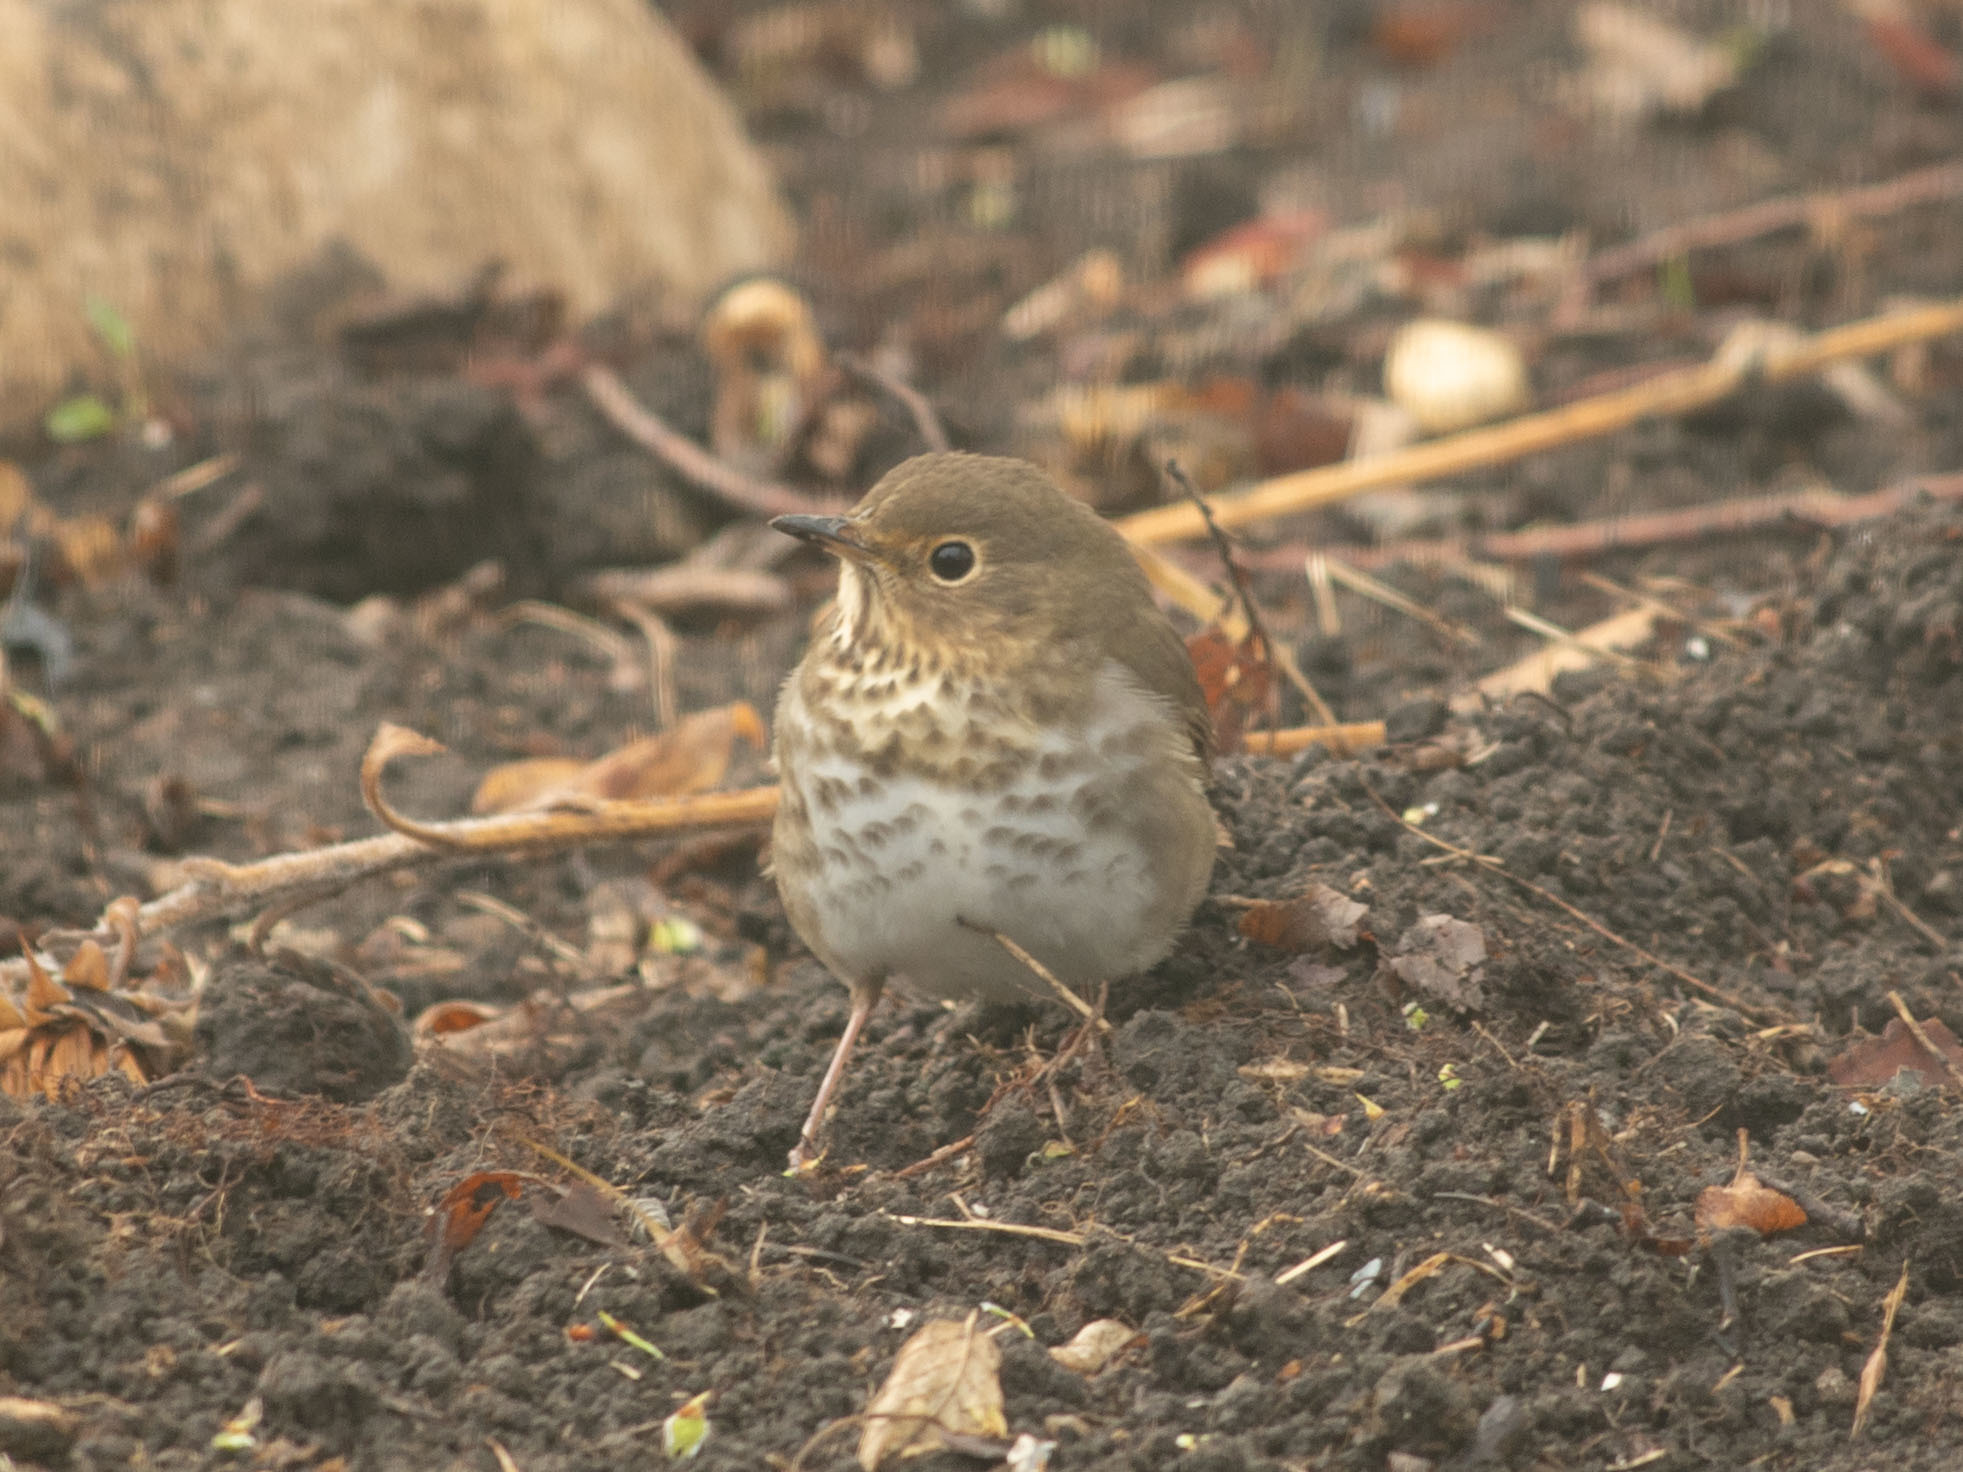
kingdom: Animalia
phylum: Chordata
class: Aves
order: Passeriformes
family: Turdidae
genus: Catharus
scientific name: Catharus ustulatus
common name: Swainson's thrush
